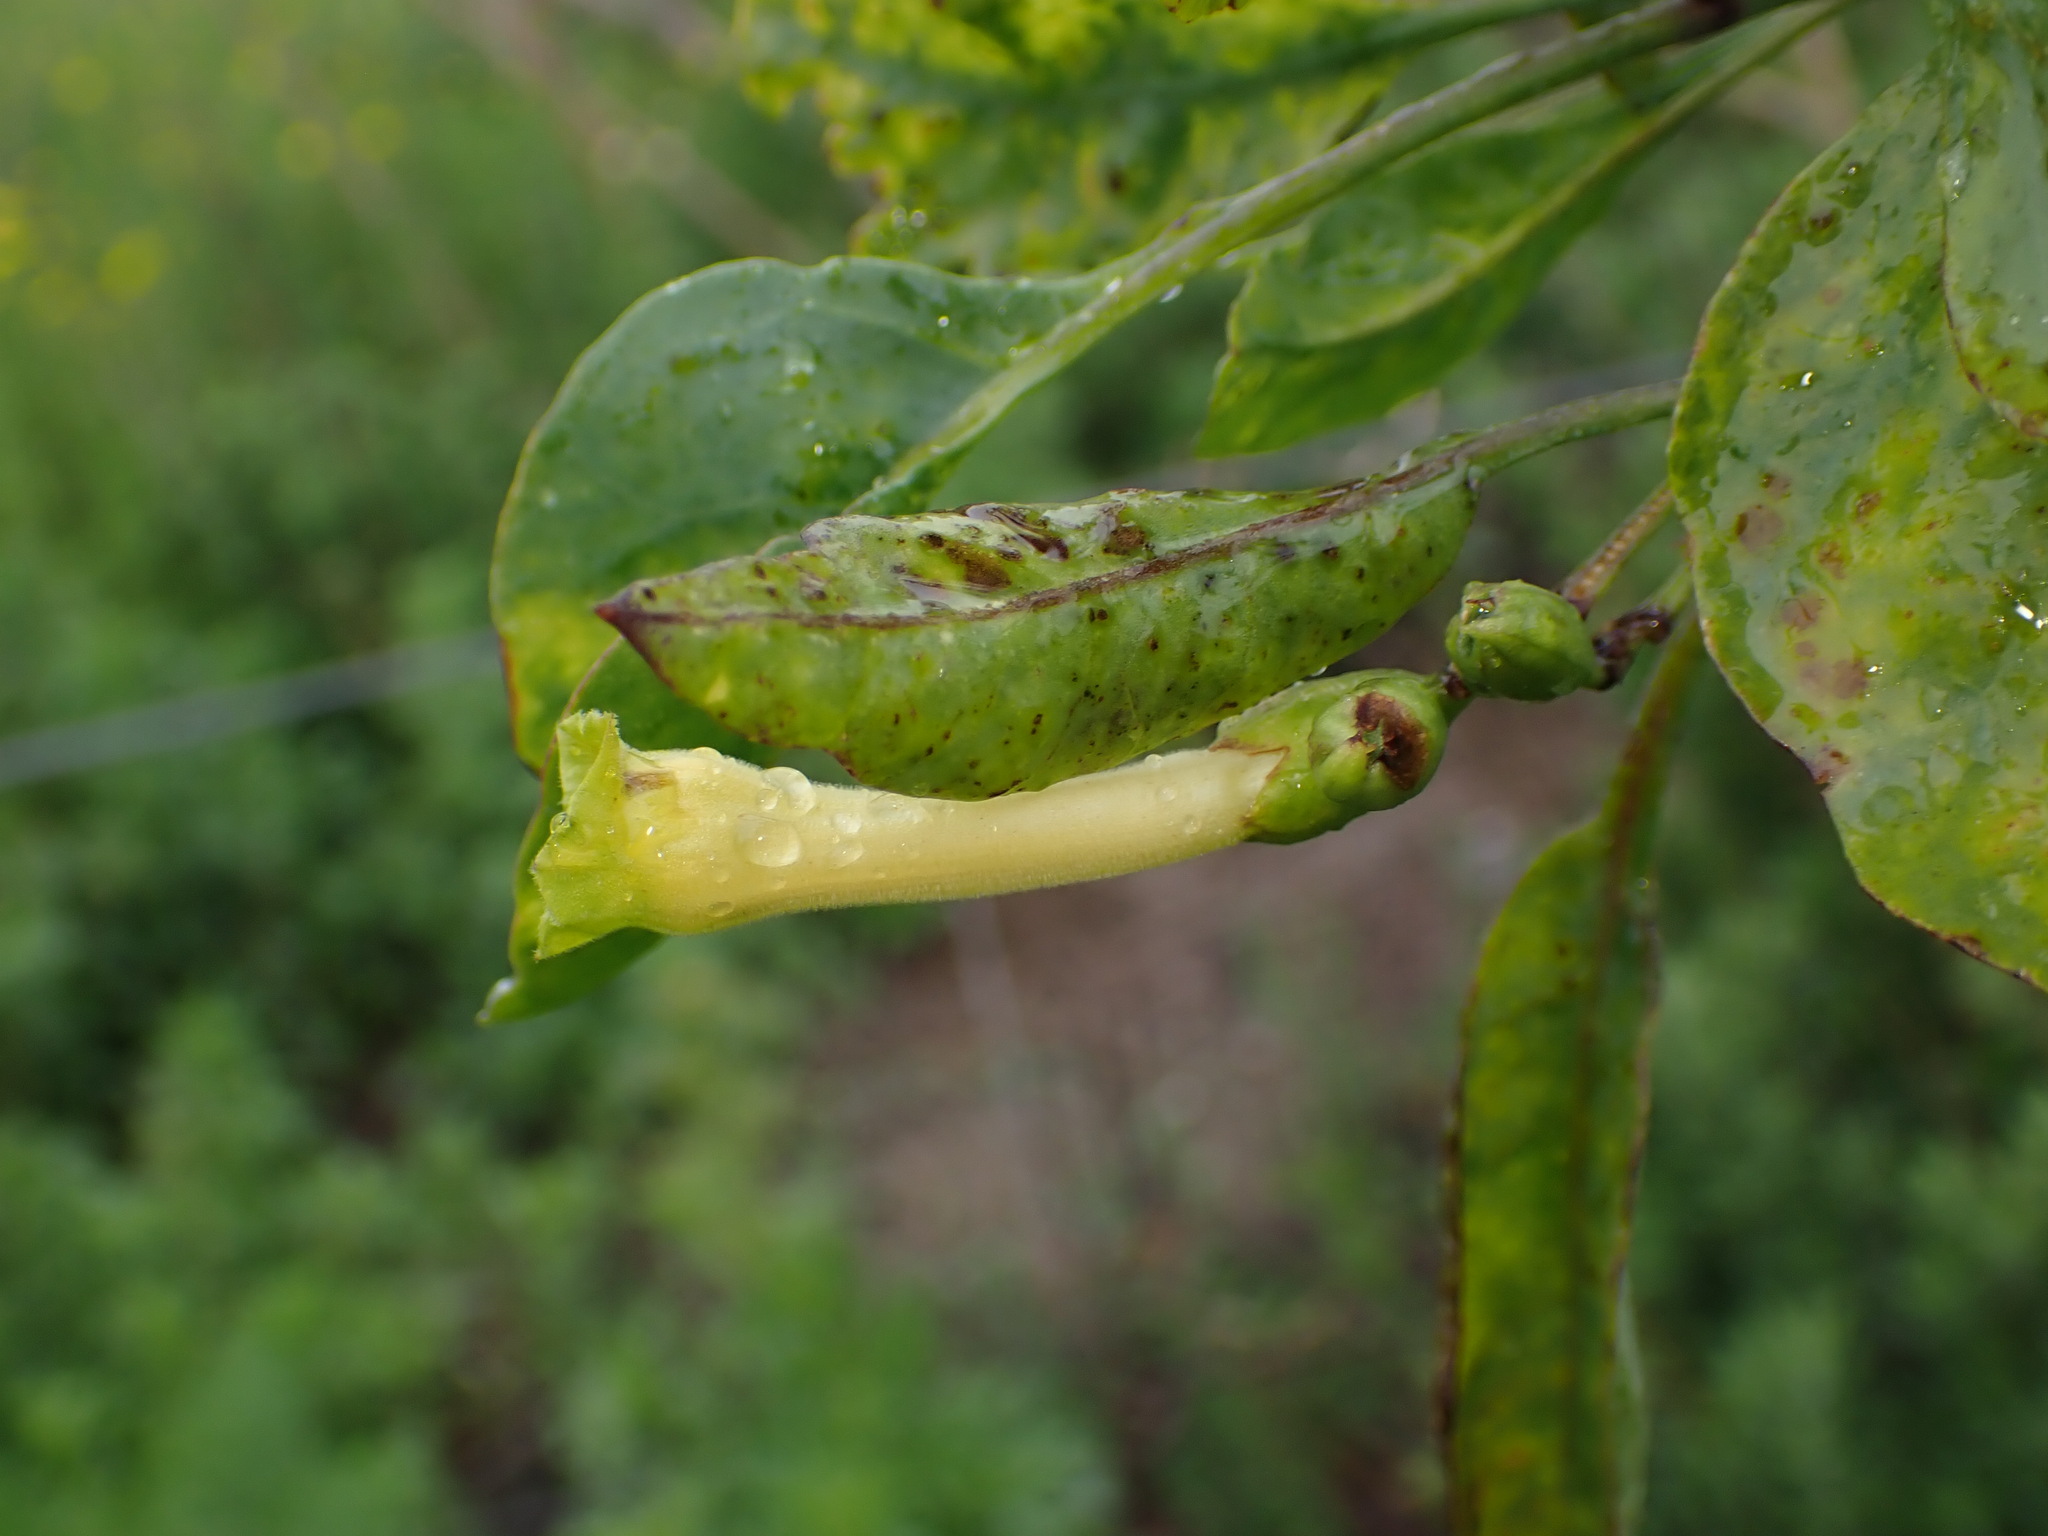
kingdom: Plantae
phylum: Tracheophyta
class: Magnoliopsida
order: Solanales
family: Solanaceae
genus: Nicotiana
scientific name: Nicotiana glauca
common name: Tree tobacco
